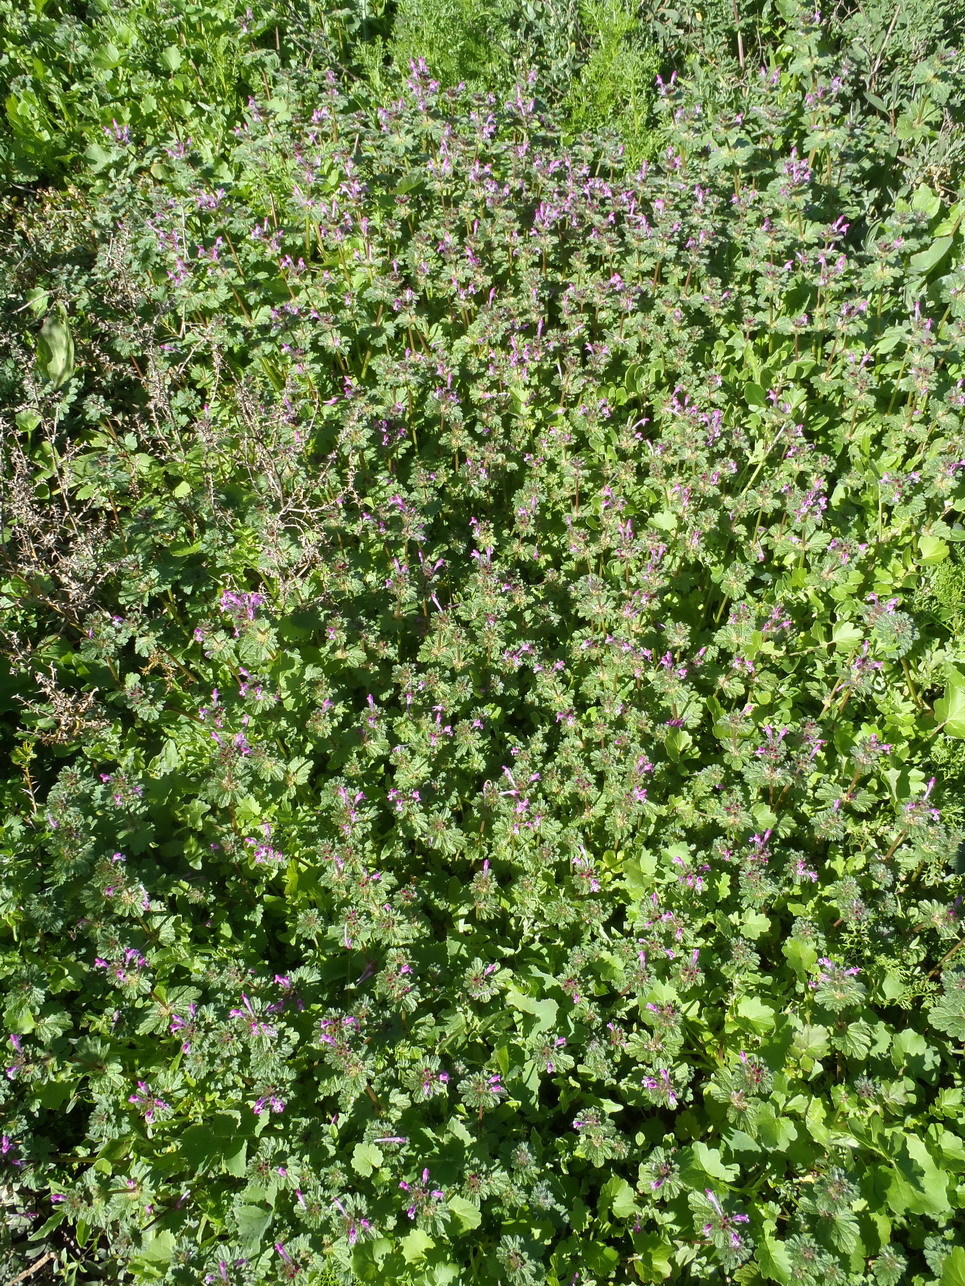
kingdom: Plantae
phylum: Tracheophyta
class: Magnoliopsida
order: Lamiales
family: Lamiaceae
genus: Lamium
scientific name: Lamium amplexicaule
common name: Henbit dead-nettle
